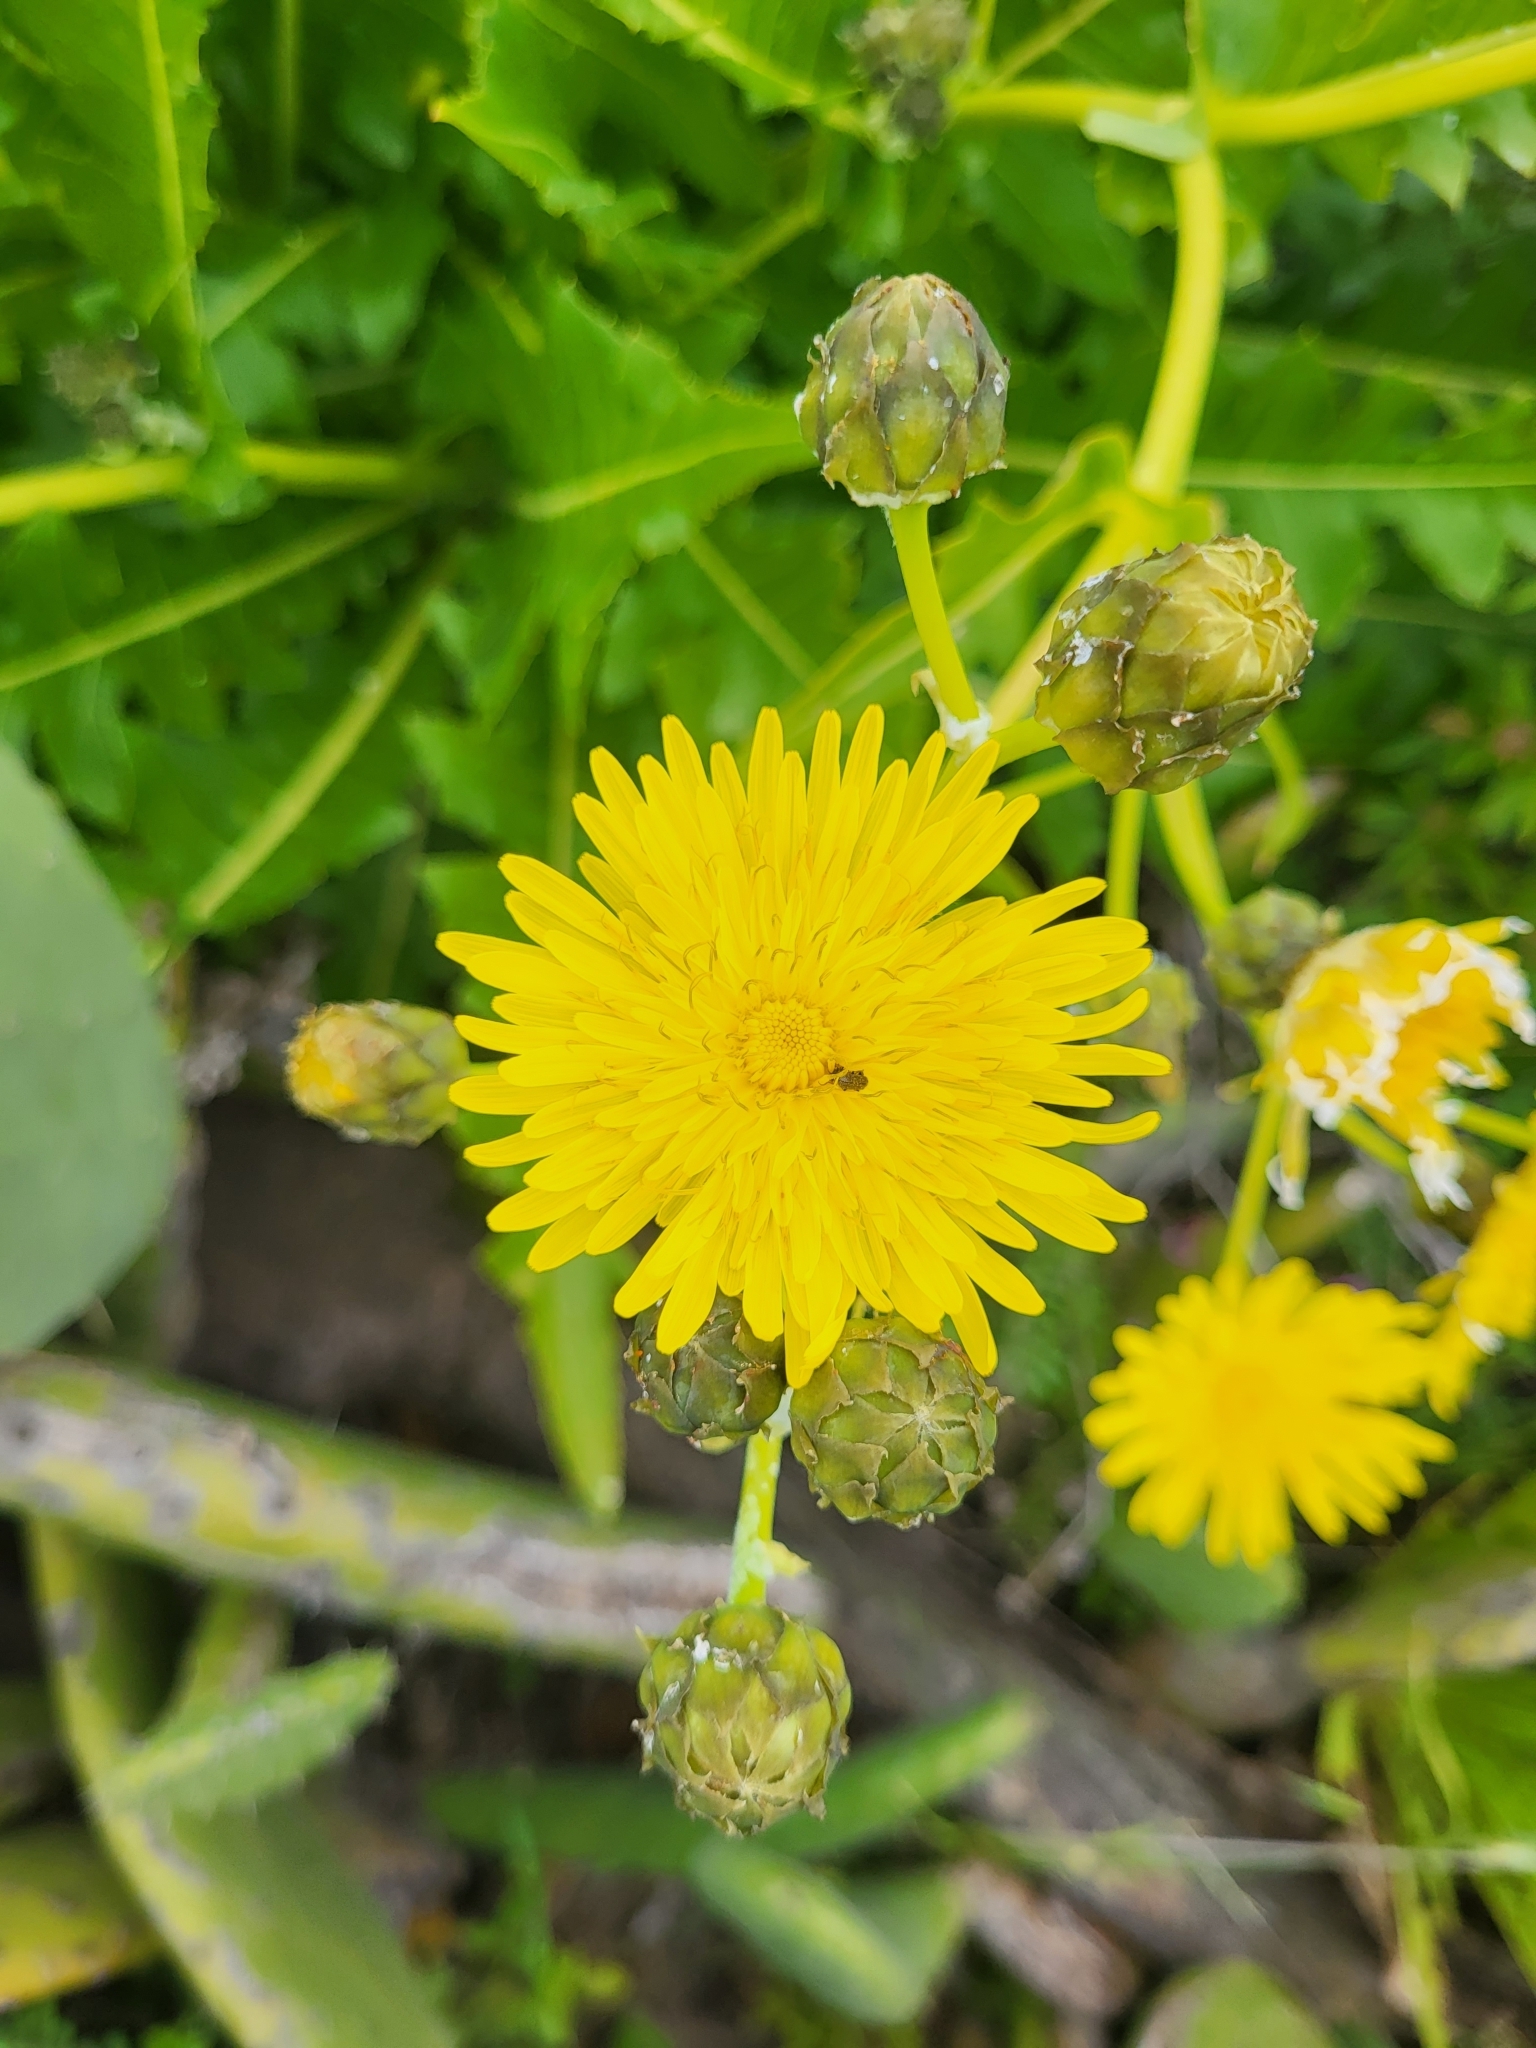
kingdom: Plantae
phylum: Tracheophyta
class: Magnoliopsida
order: Asterales
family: Asteraceae
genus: Sonchus
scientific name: Sonchus hierrensis
